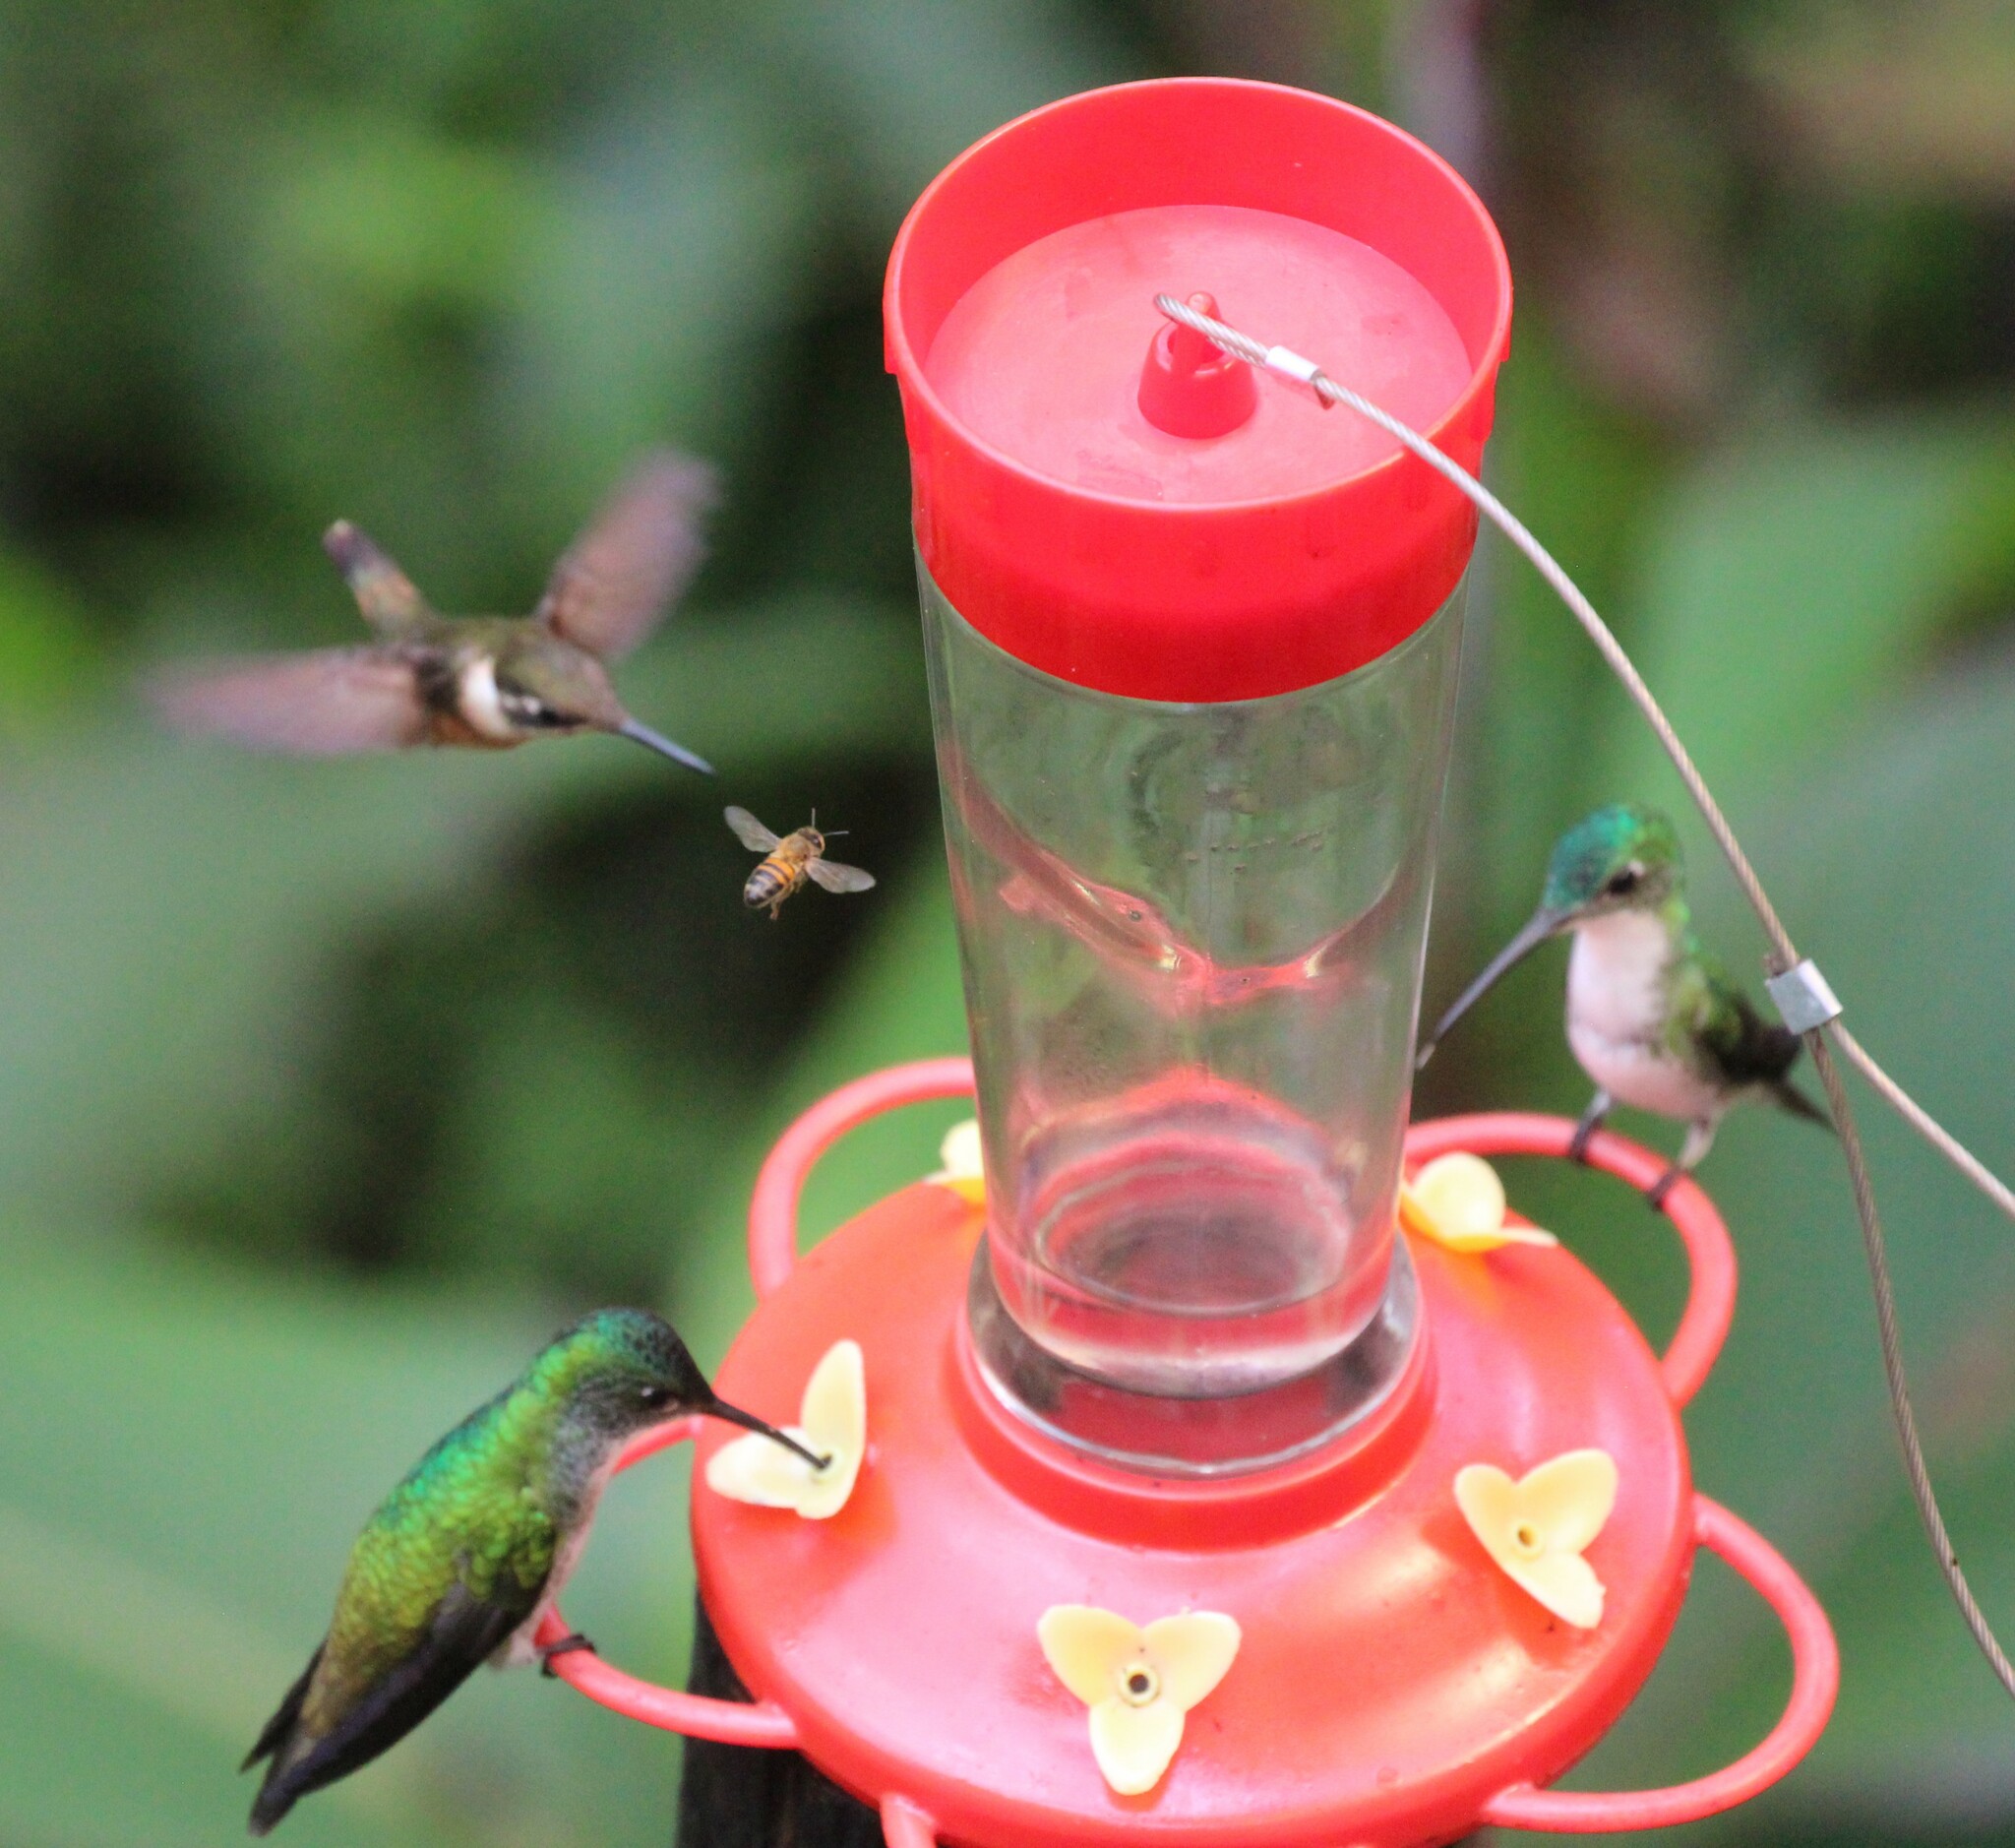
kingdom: Animalia
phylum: Chordata
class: Aves
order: Apodiformes
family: Trochilidae
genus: Uranomitra
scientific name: Uranomitra franciae
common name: Andean emerald
